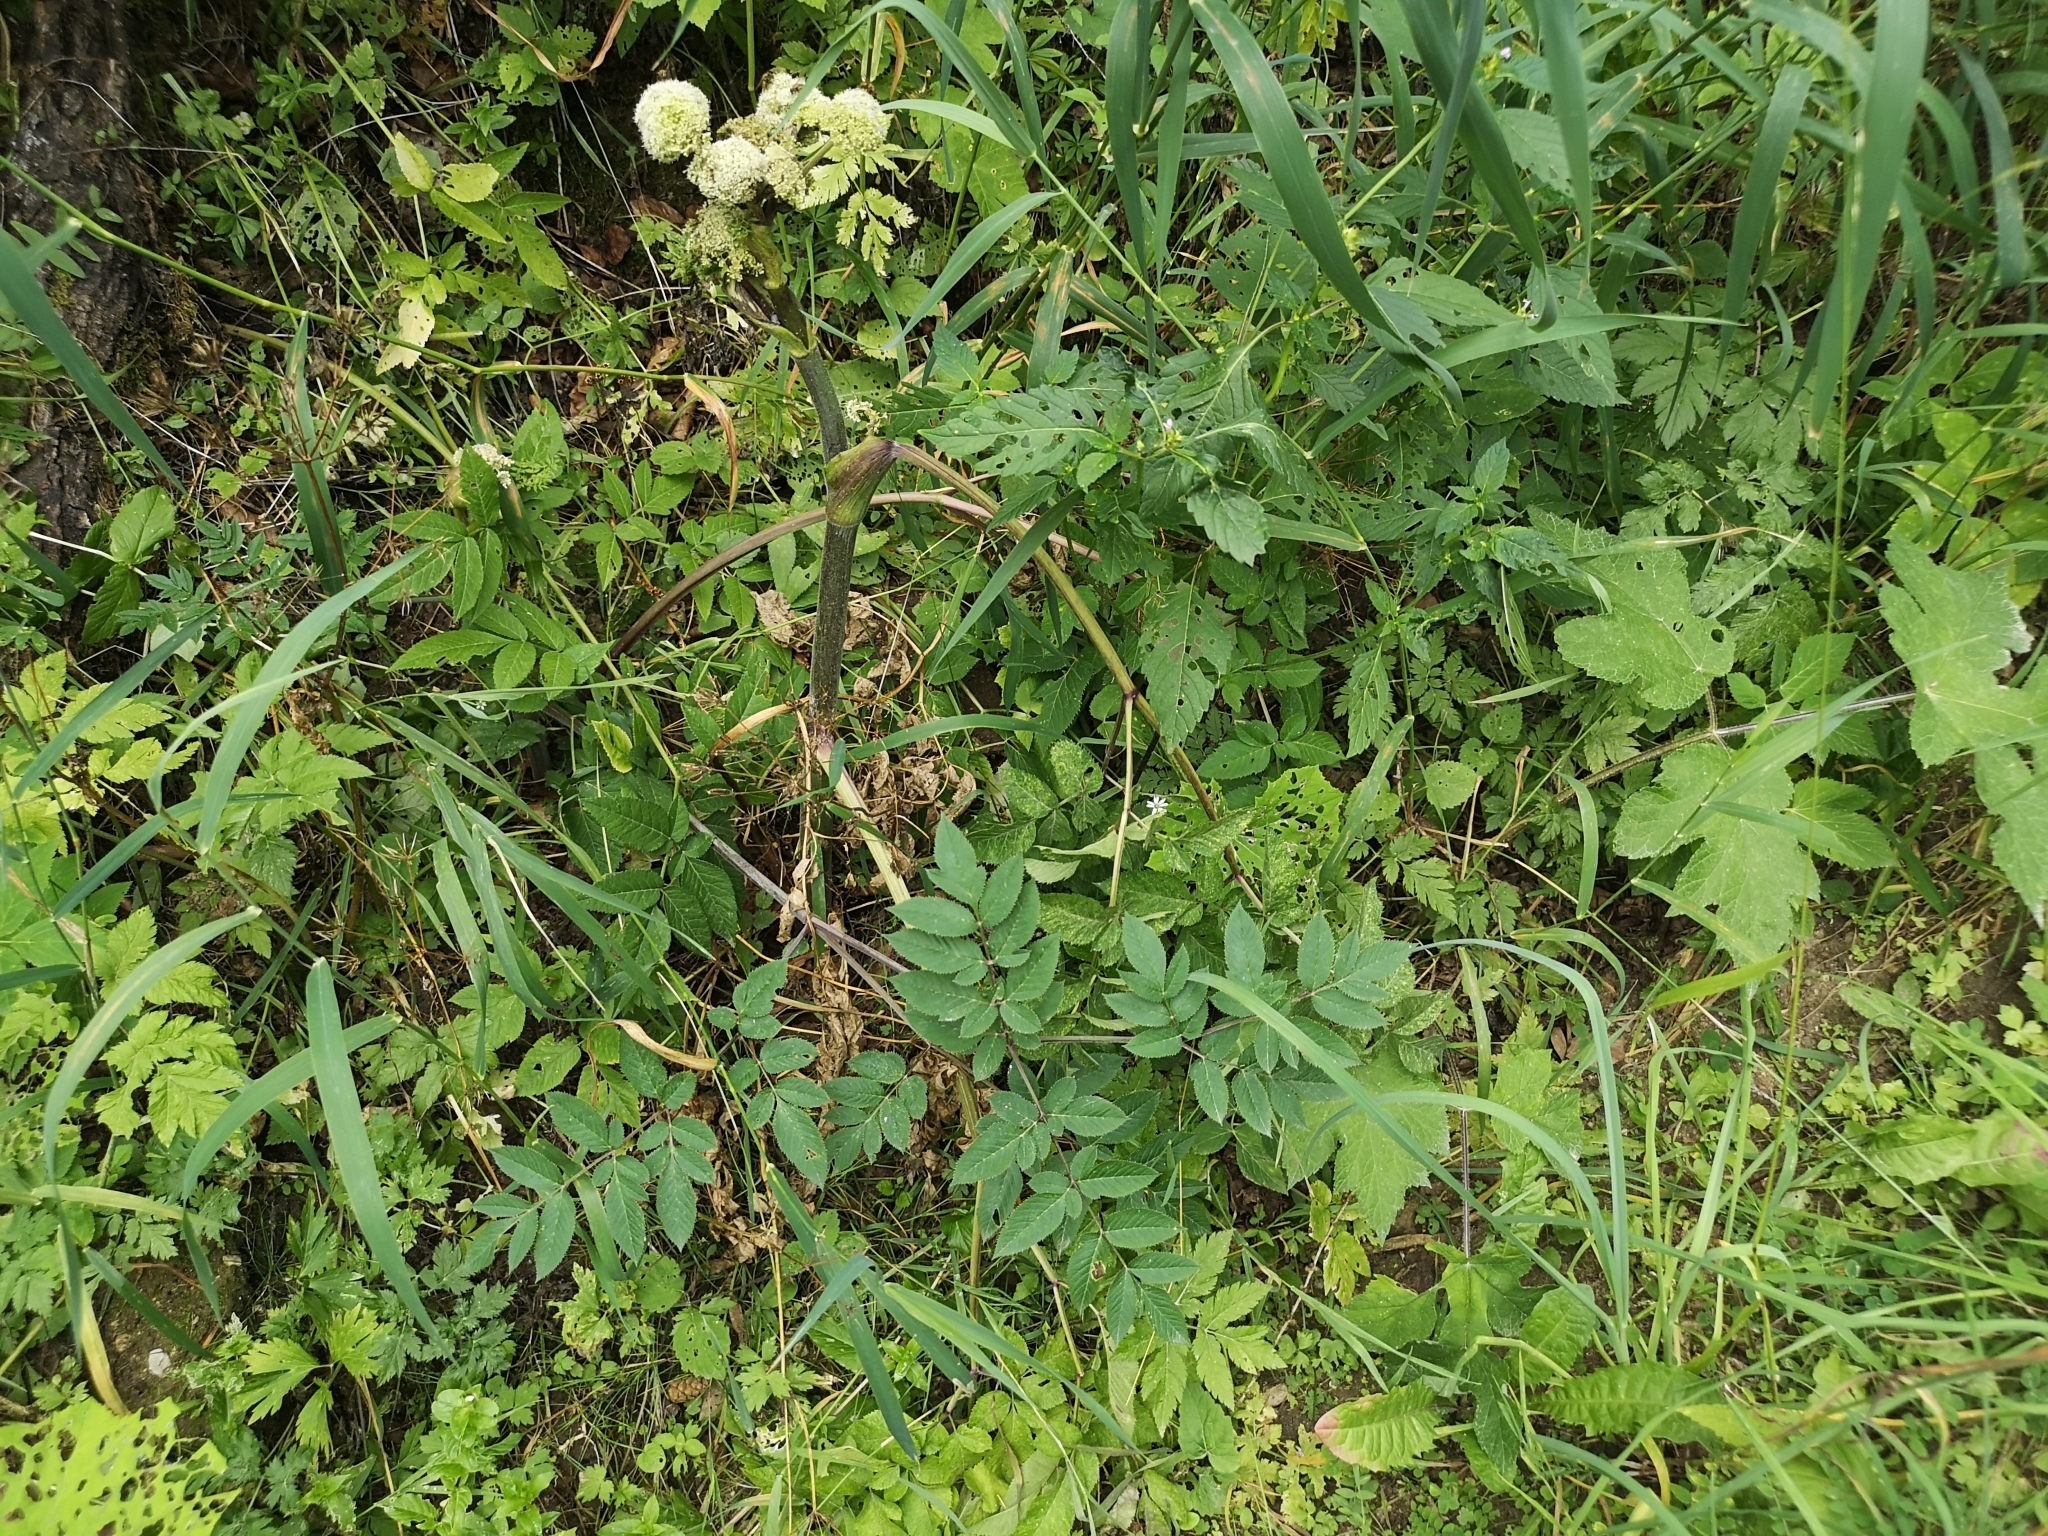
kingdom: Plantae
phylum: Tracheophyta
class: Magnoliopsida
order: Apiales
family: Apiaceae
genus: Angelica
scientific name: Angelica sylvestris
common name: Wild angelica
